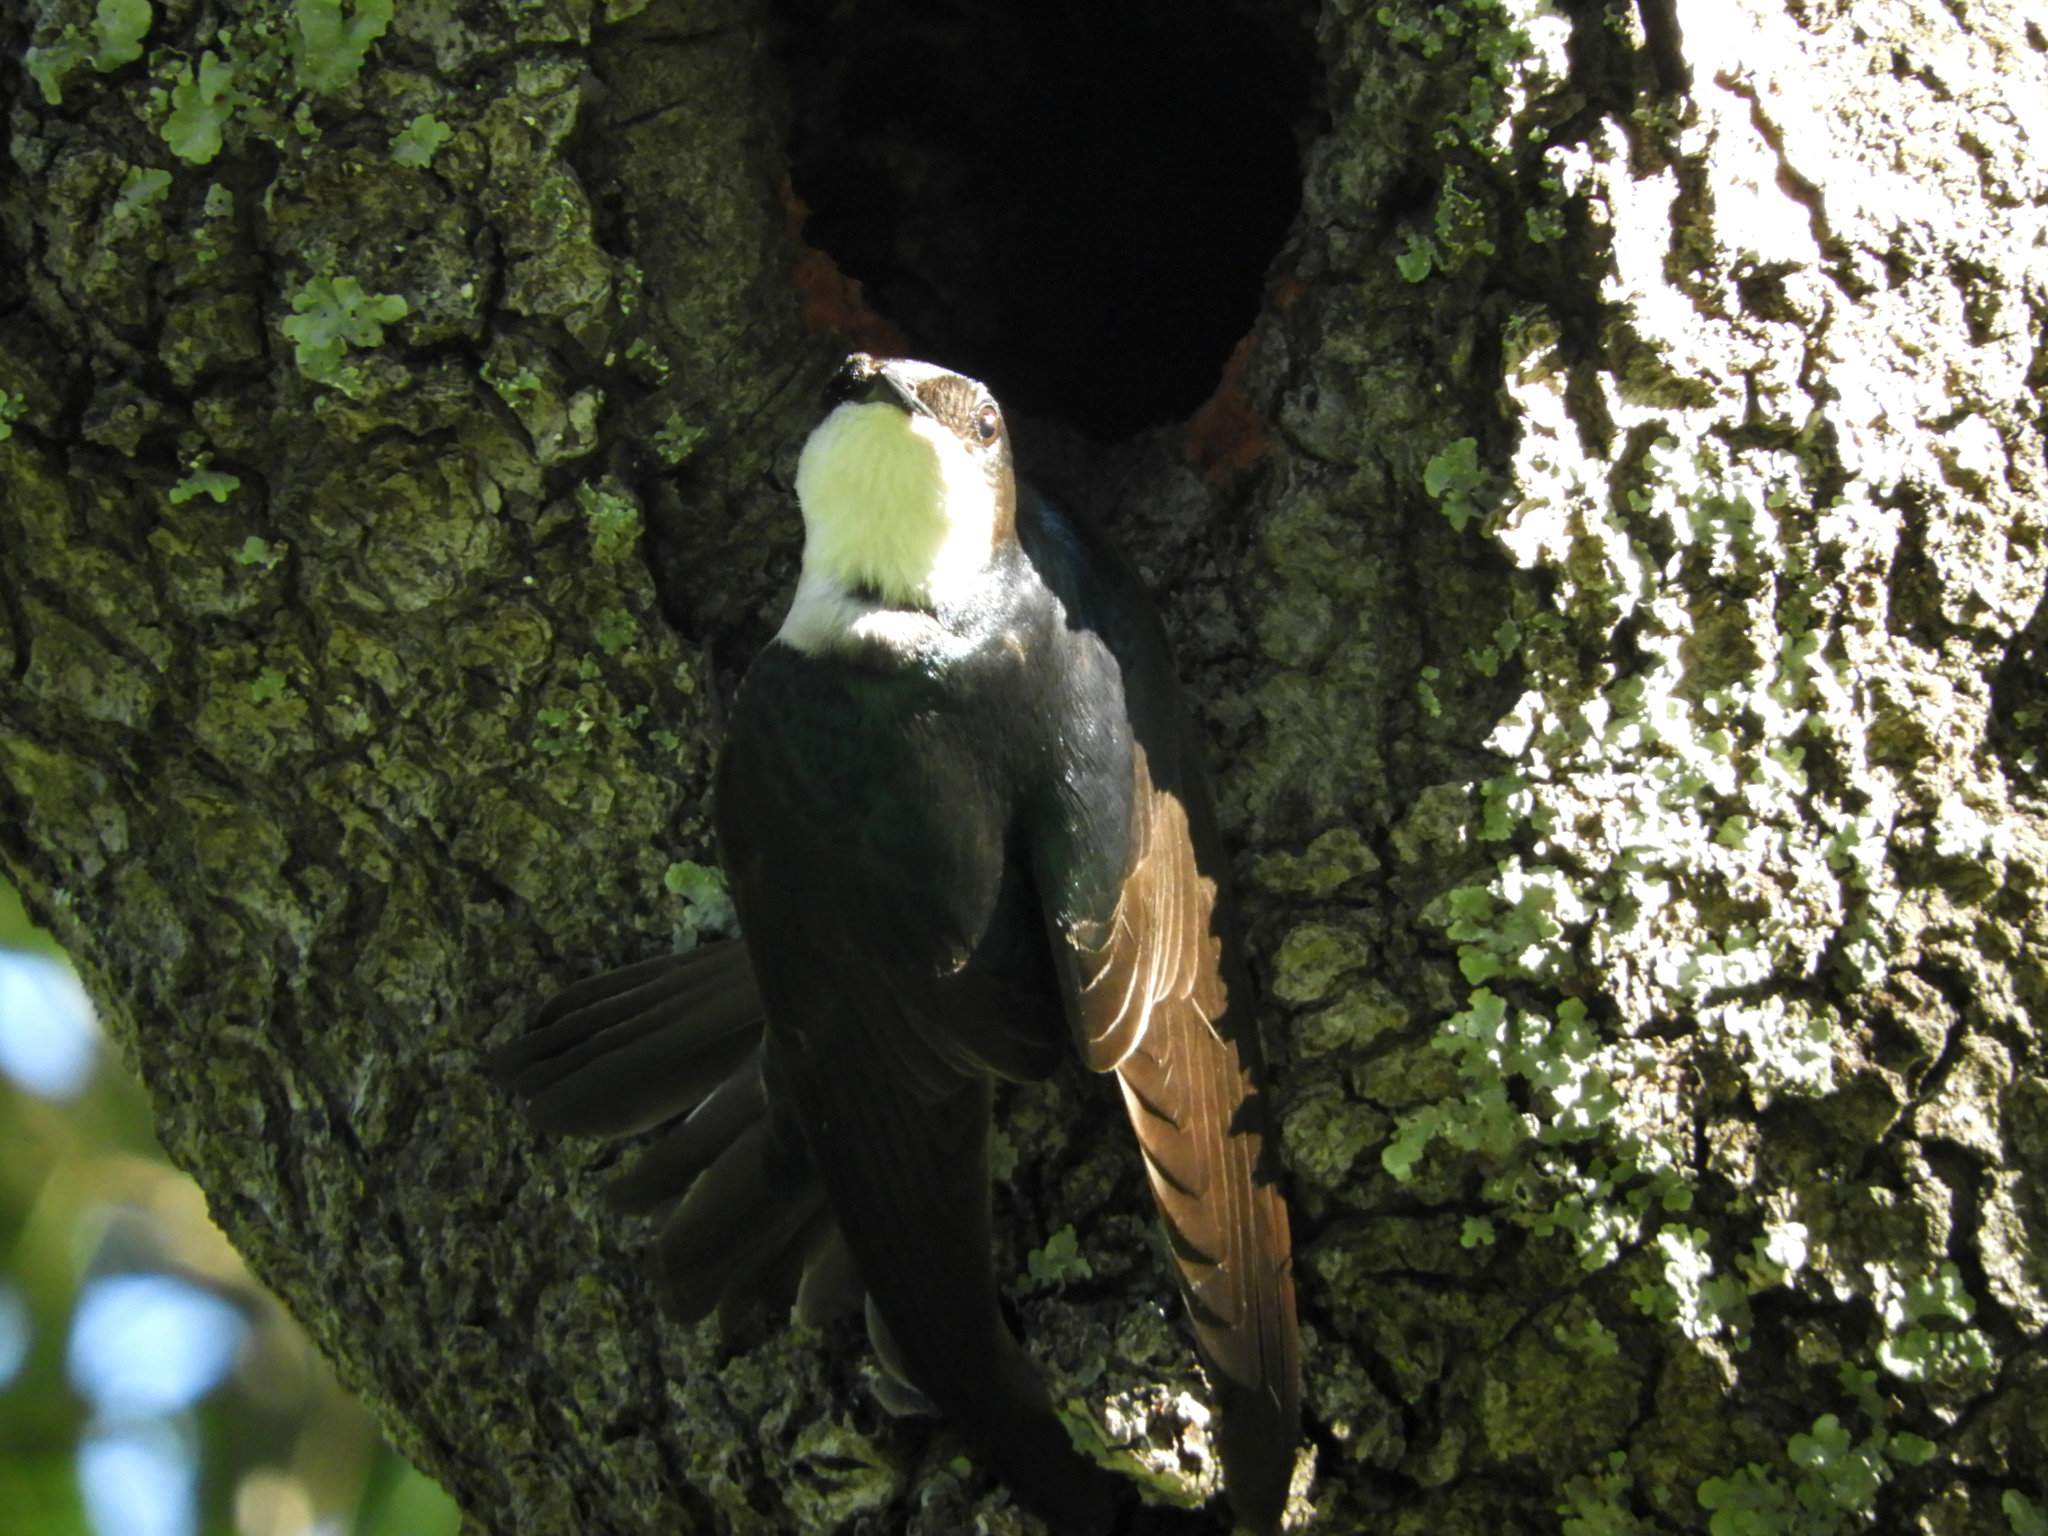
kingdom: Animalia
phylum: Chordata
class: Aves
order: Passeriformes
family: Hirundinidae
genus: Tachycineta
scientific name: Tachycineta bicolor
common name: Tree swallow
